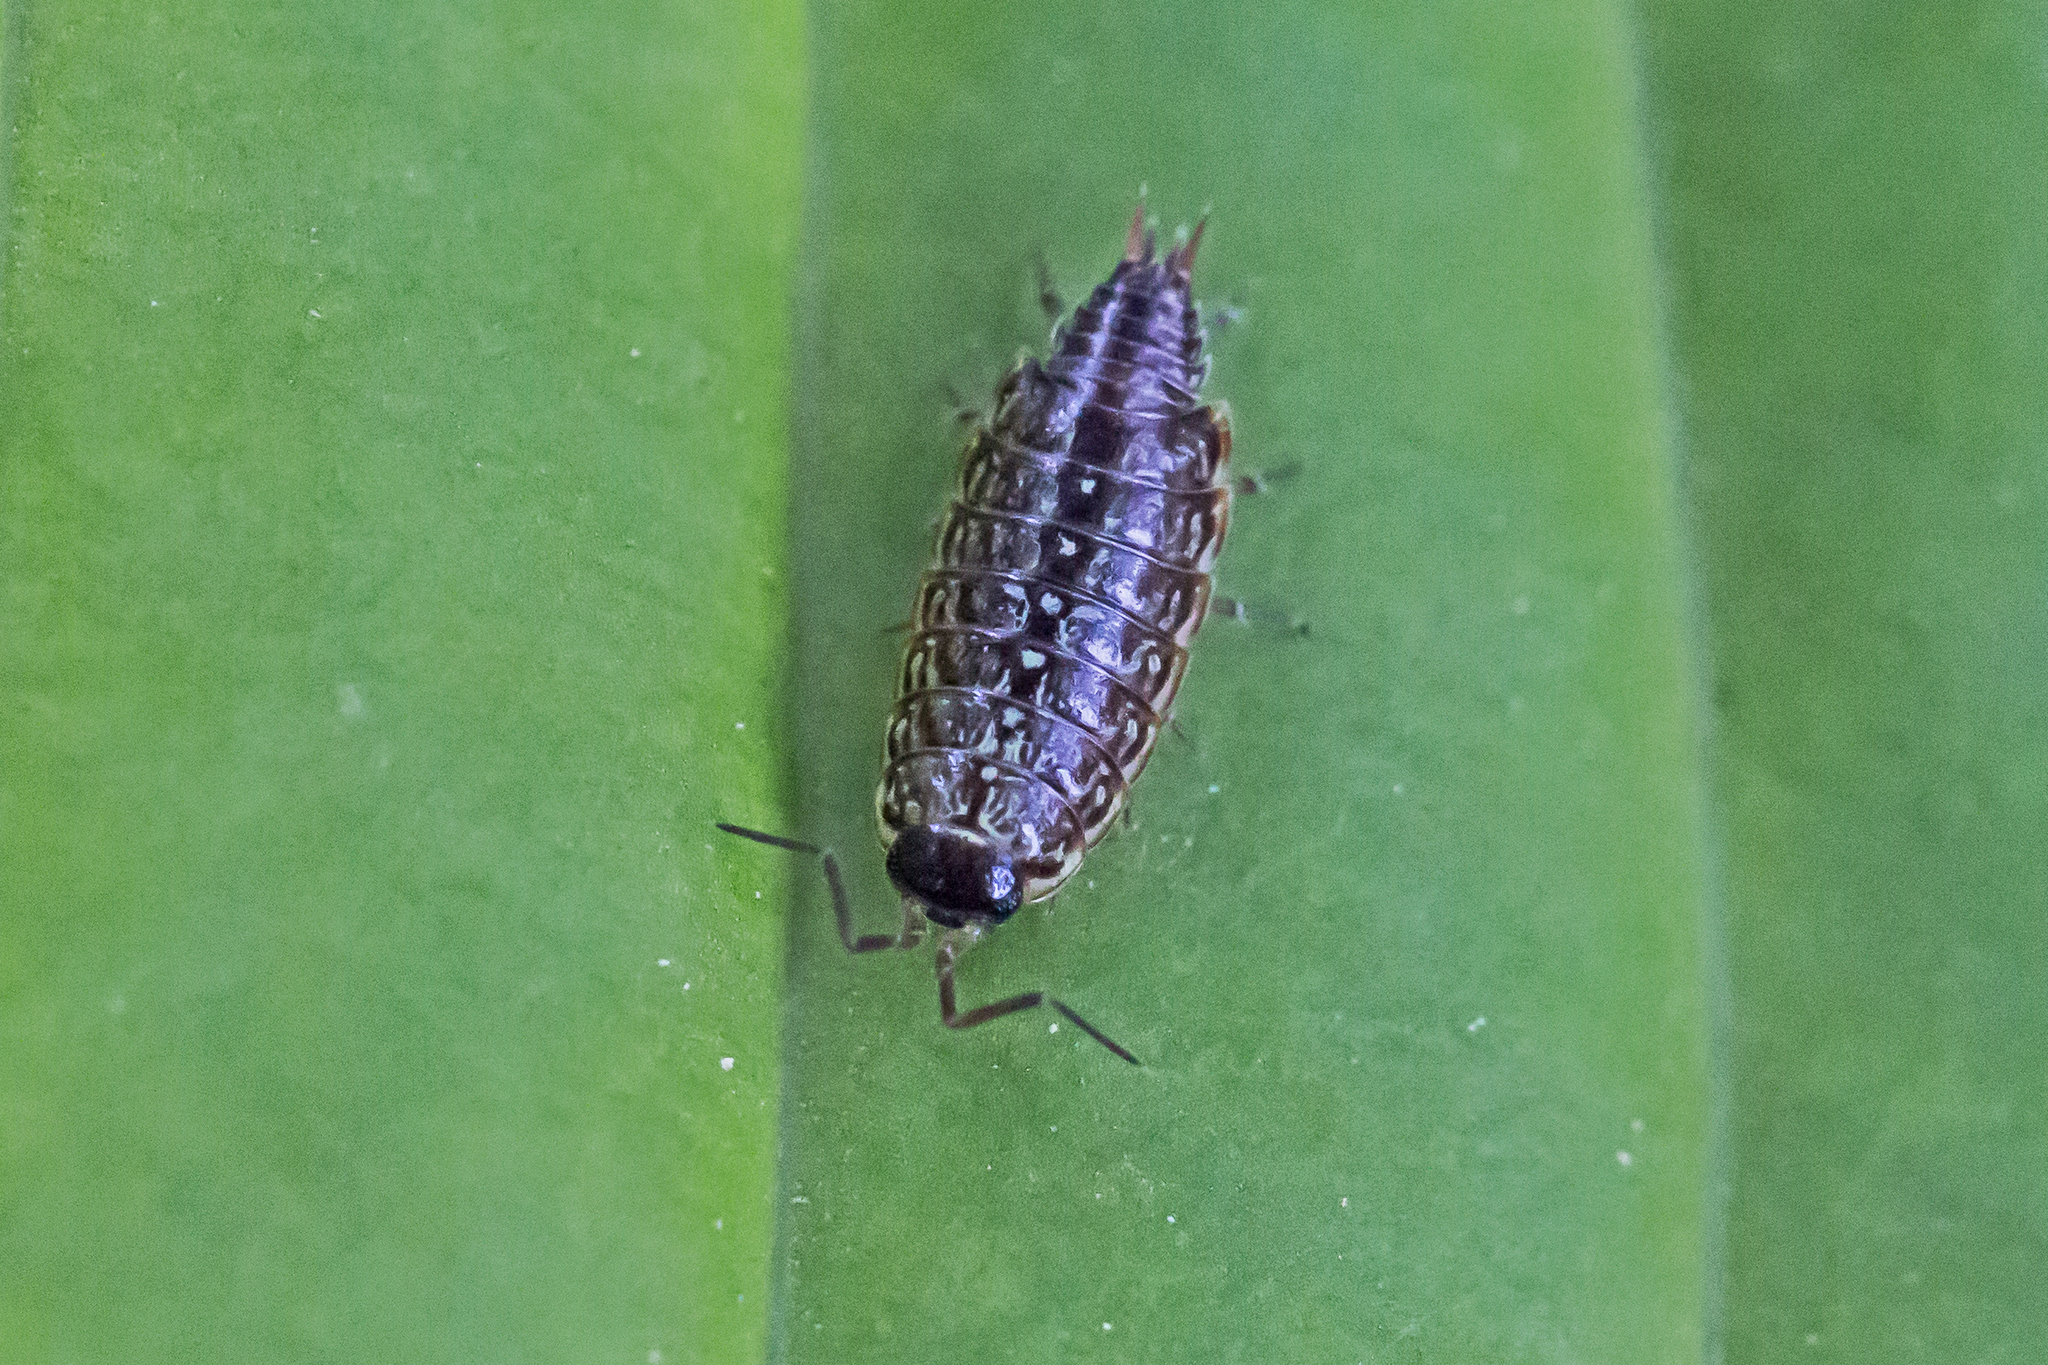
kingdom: Animalia
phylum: Arthropoda
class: Malacostraca
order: Isopoda
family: Philosciidae
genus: Philoscia
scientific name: Philoscia muscorum
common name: Common striped woodlouse
